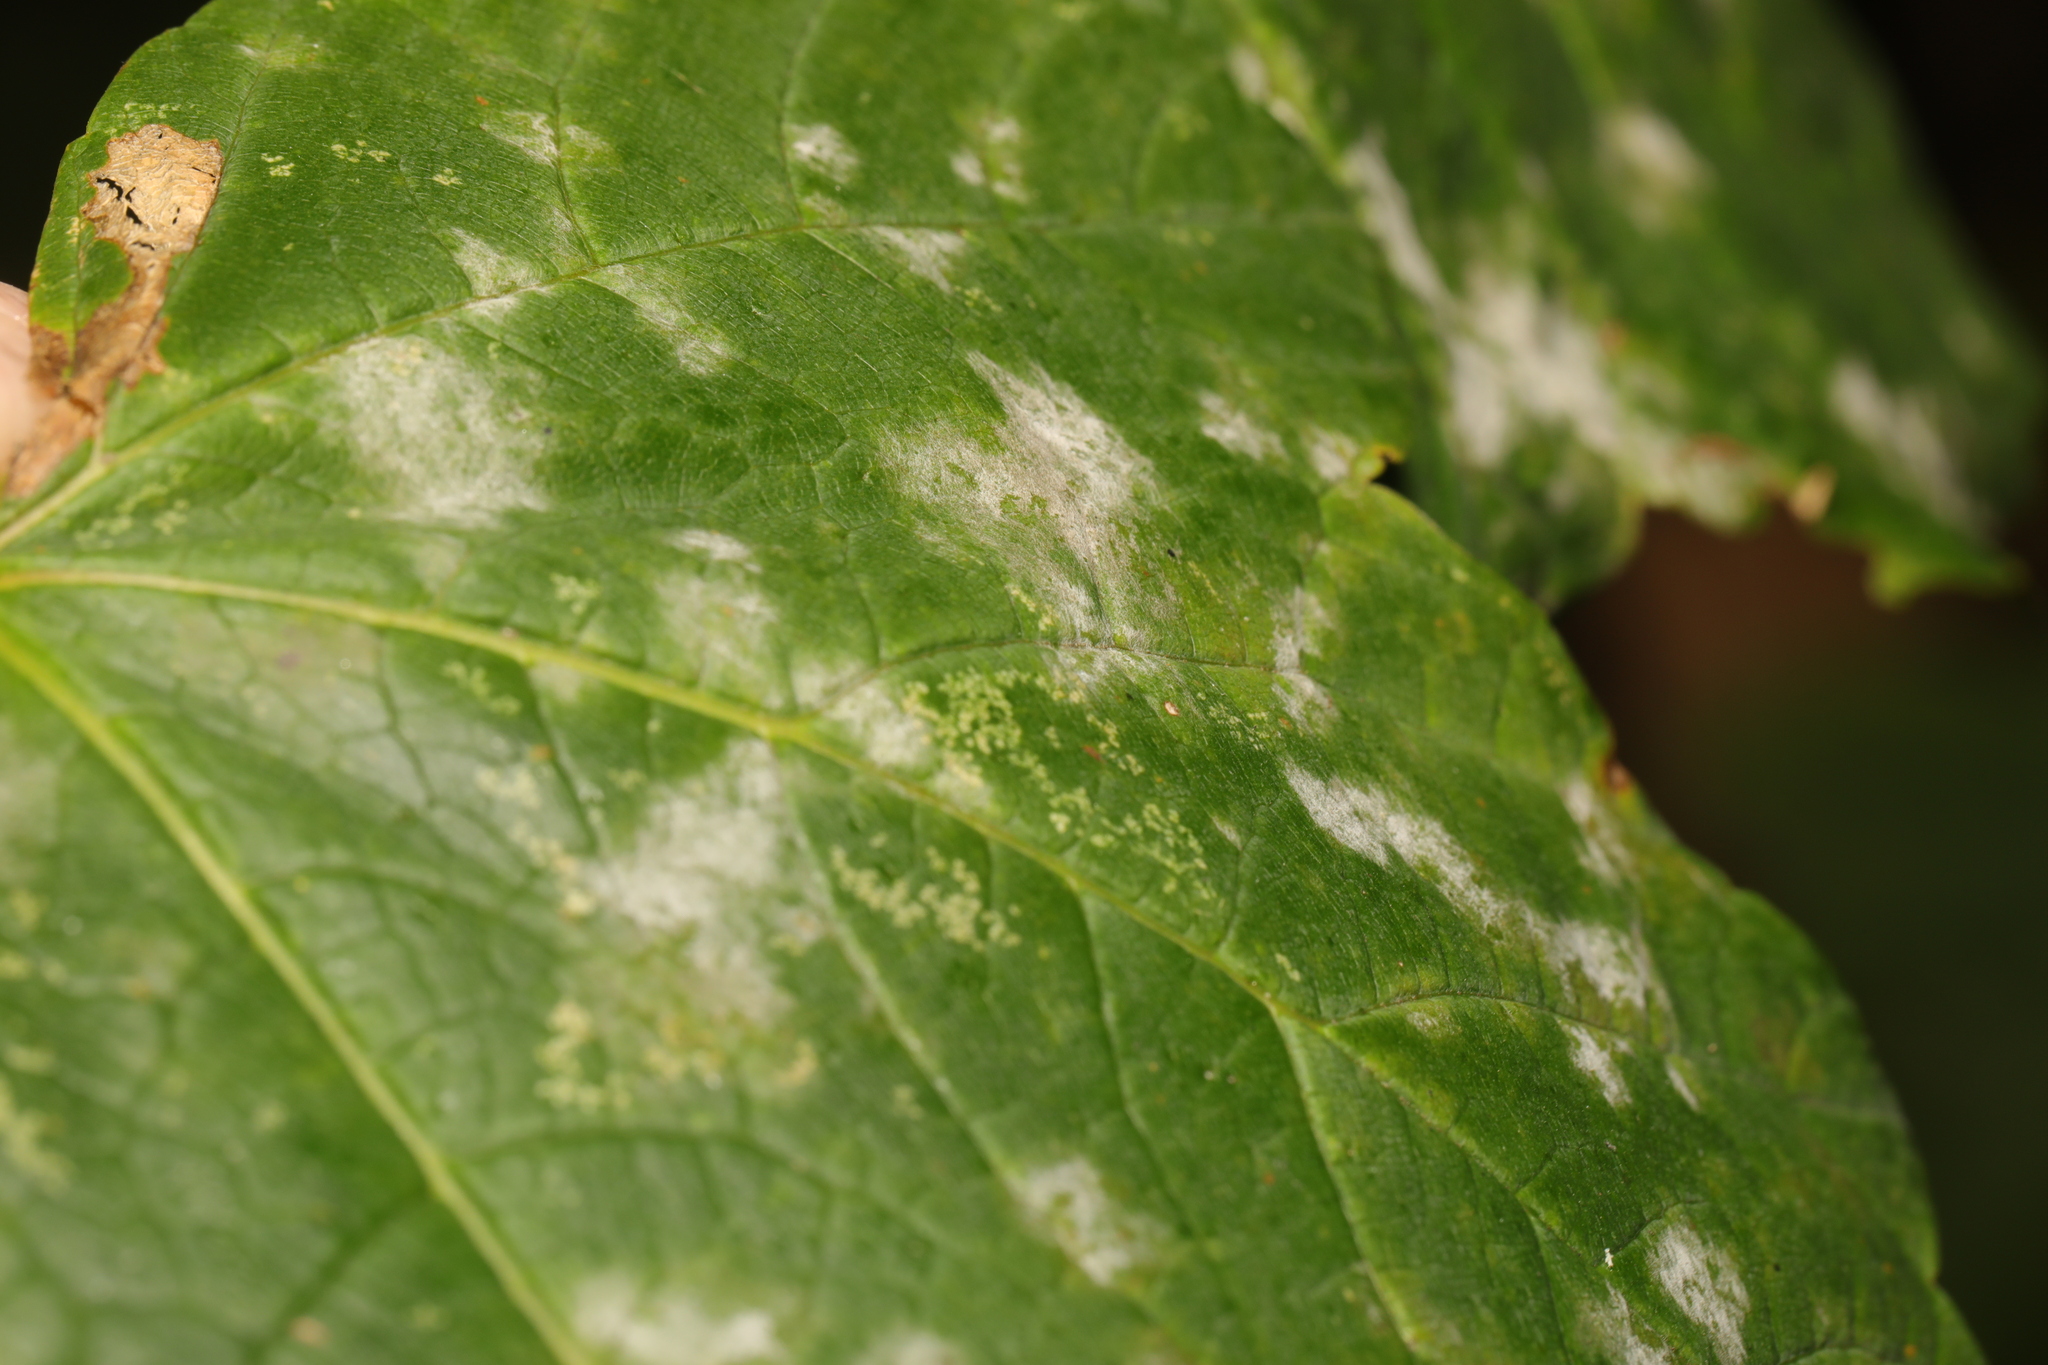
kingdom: Fungi
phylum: Ascomycota
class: Leotiomycetes
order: Helotiales
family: Erysiphaceae
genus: Sawadaea
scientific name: Sawadaea bicornis
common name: Maple mildew
